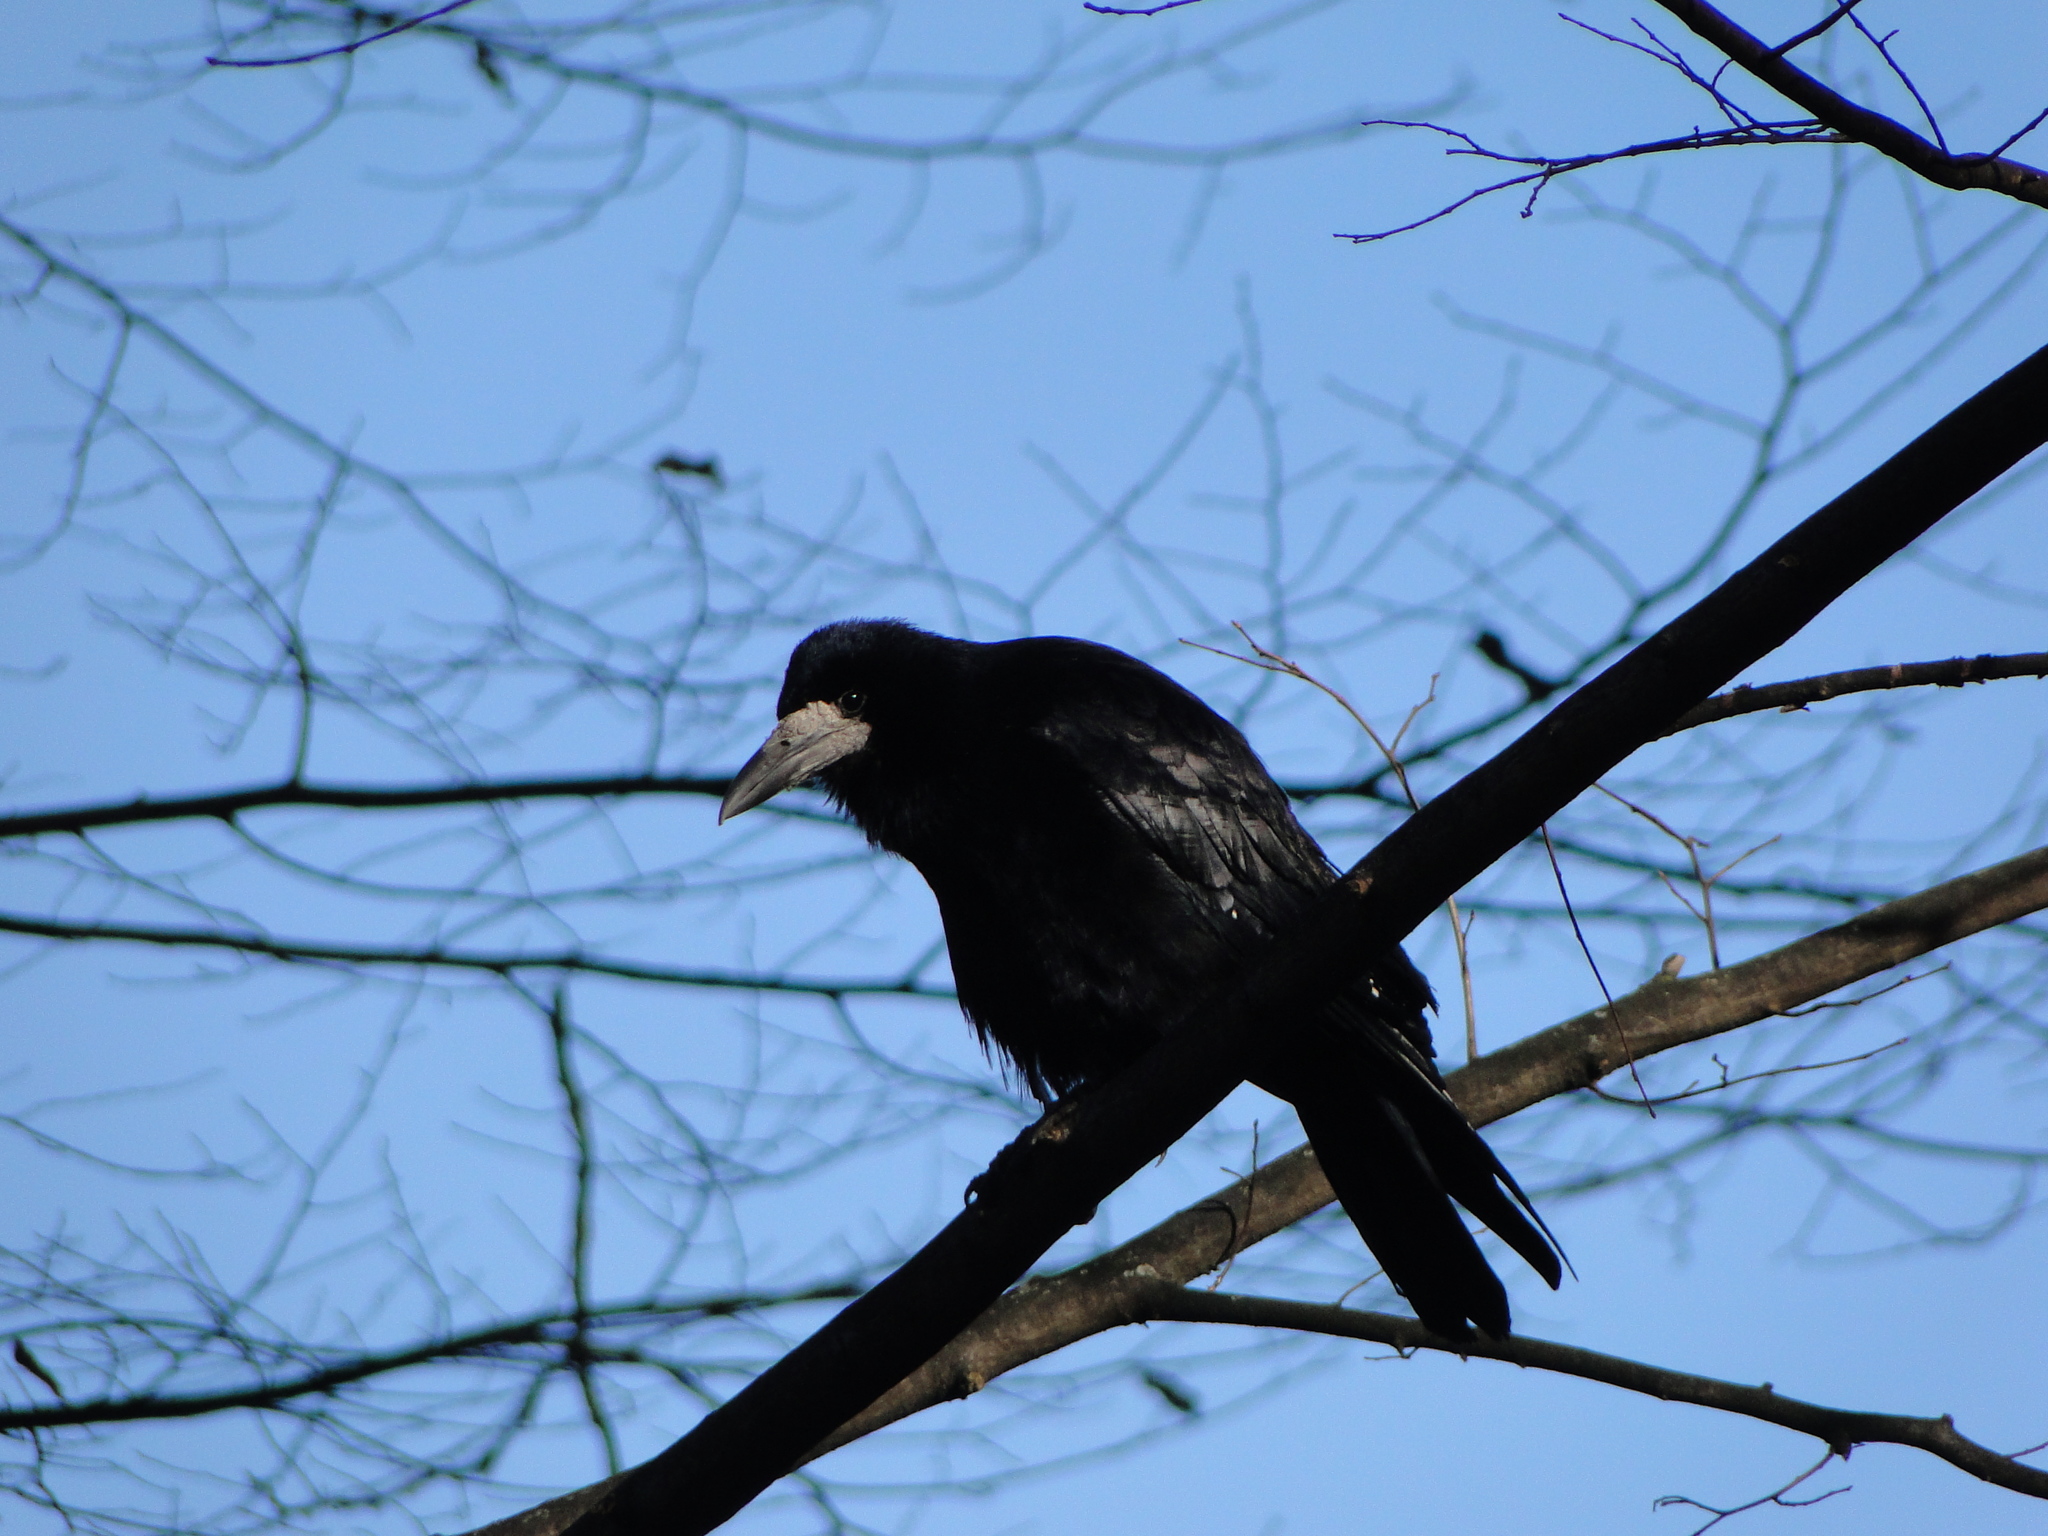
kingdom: Animalia
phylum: Chordata
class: Aves
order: Passeriformes
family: Corvidae
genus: Corvus
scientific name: Corvus frugilegus
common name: Rook
